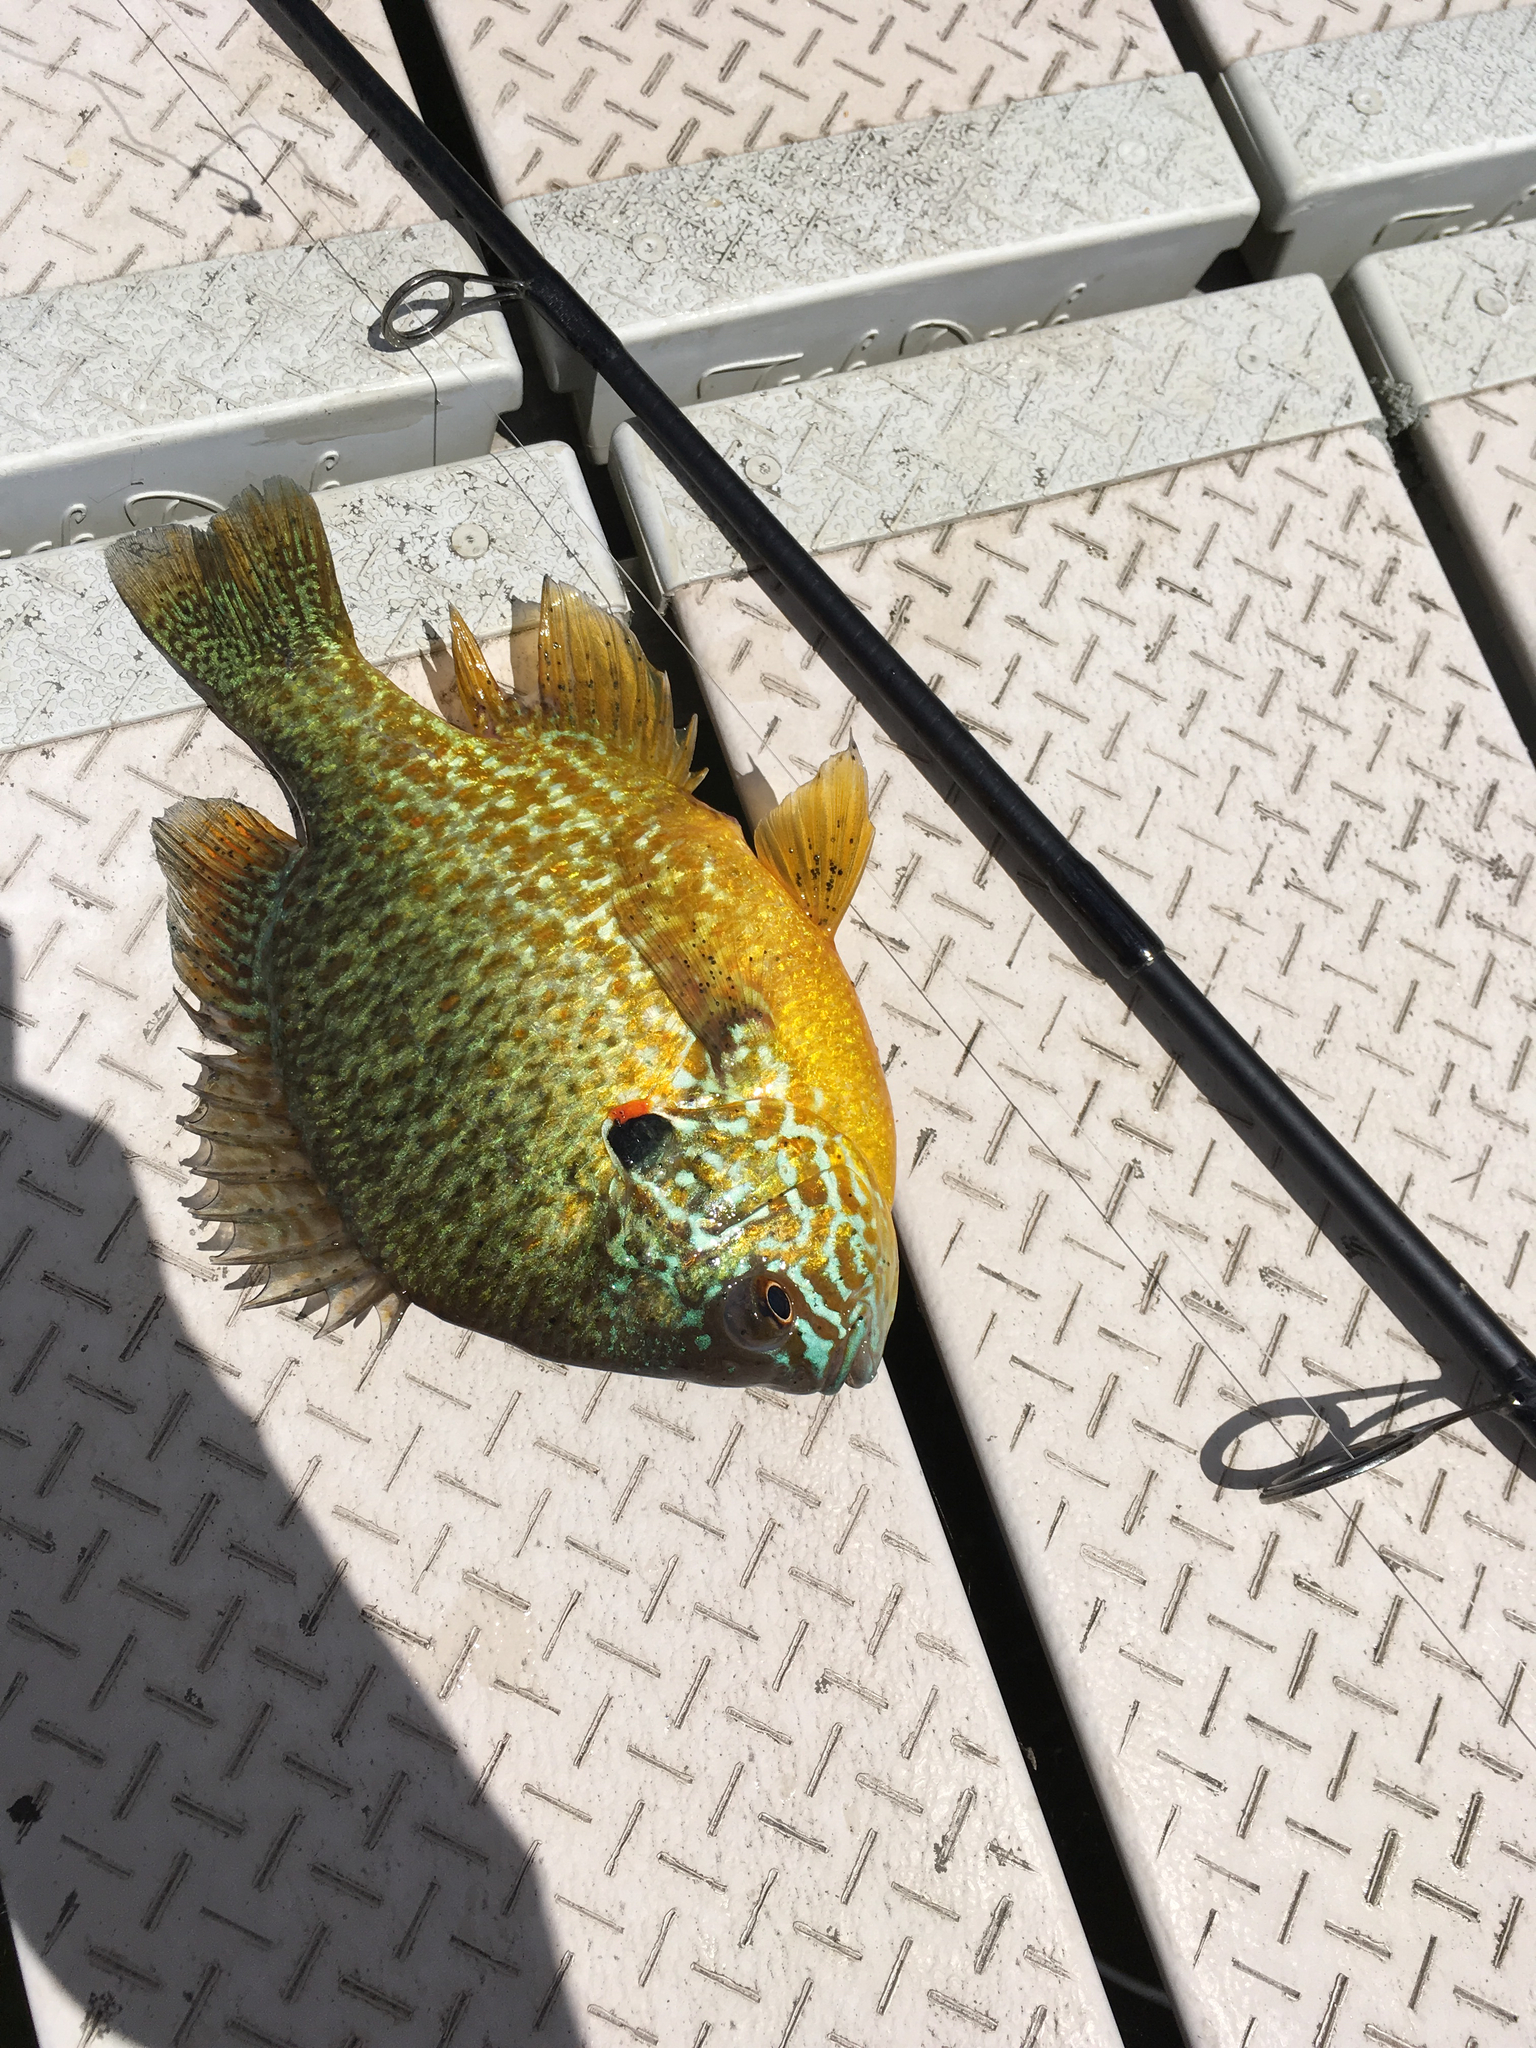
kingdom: Animalia
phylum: Chordata
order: Perciformes
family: Centrarchidae
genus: Lepomis
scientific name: Lepomis gibbosus
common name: Pumpkinseed
